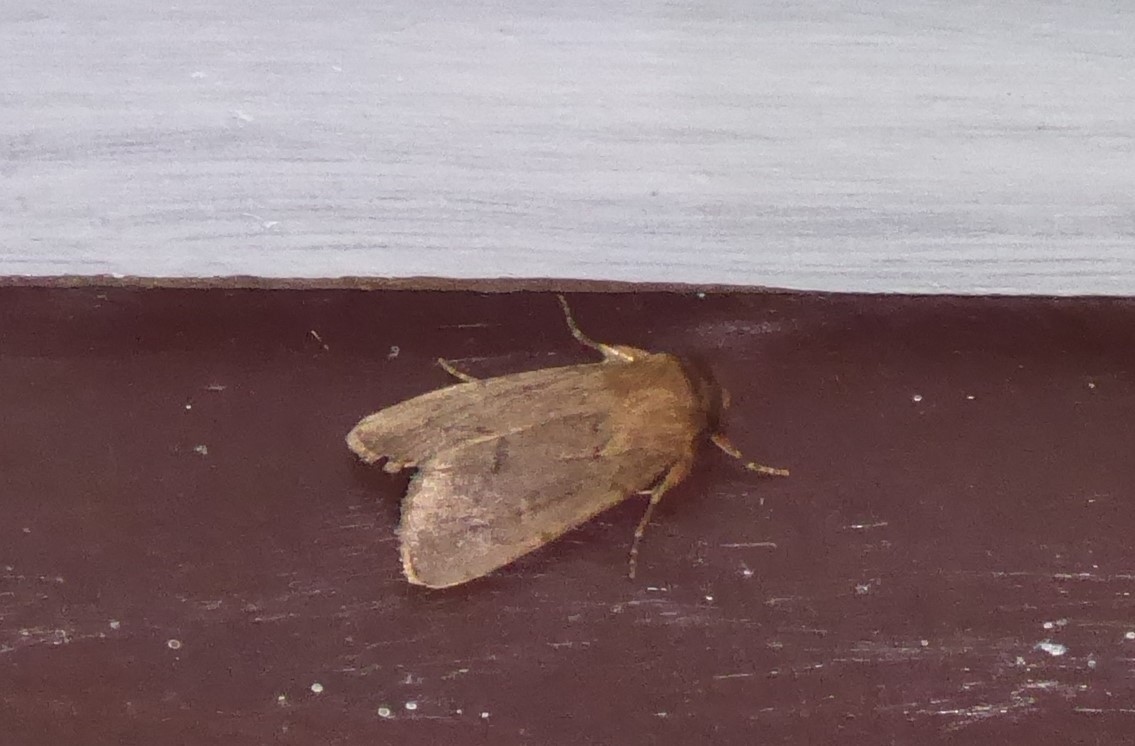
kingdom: Animalia
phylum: Arthropoda
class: Insecta
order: Lepidoptera
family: Noctuidae
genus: Bityla
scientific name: Bityla defigurata
